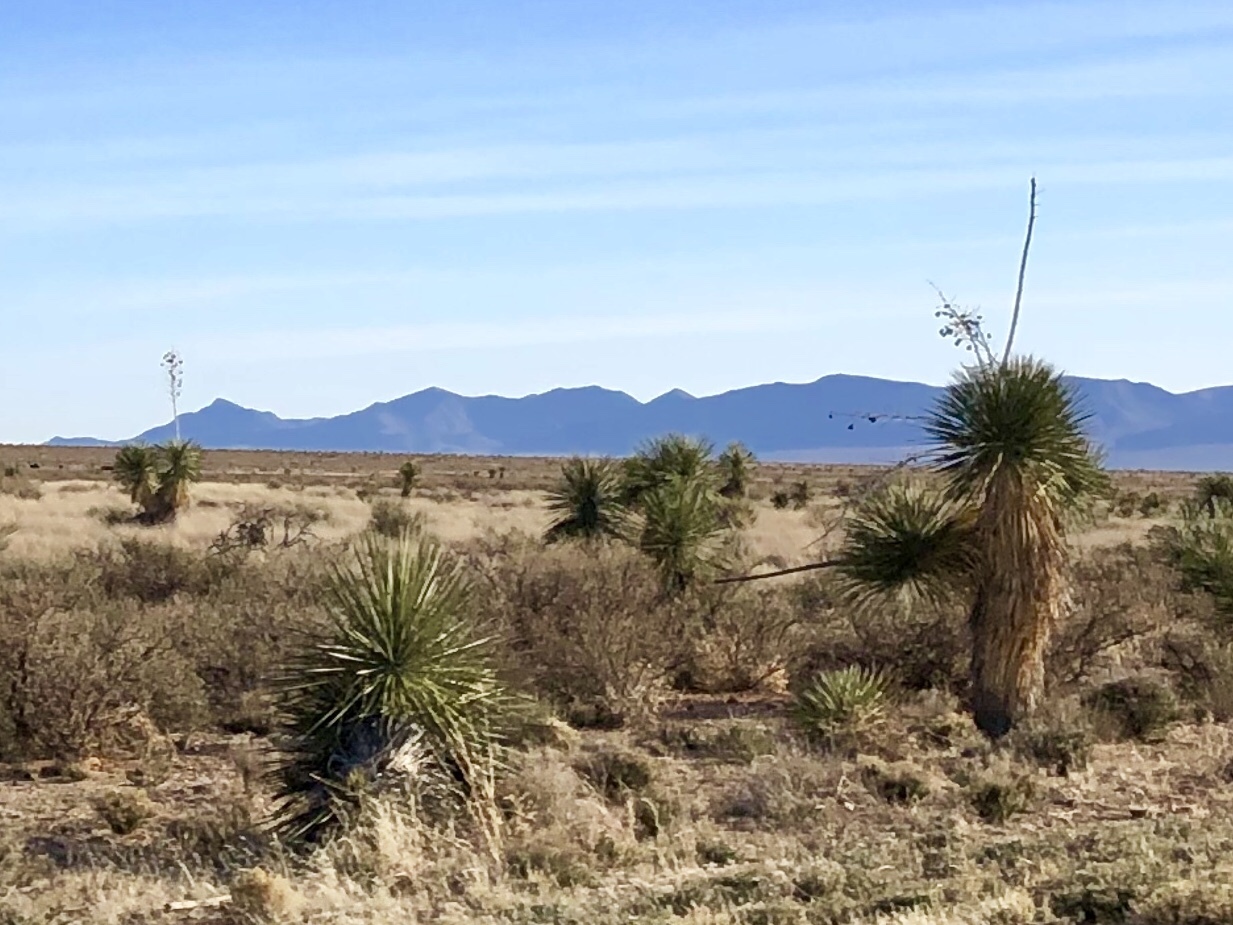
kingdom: Plantae
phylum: Tracheophyta
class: Liliopsida
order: Asparagales
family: Asparagaceae
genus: Yucca
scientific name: Yucca elata
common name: Palmella
